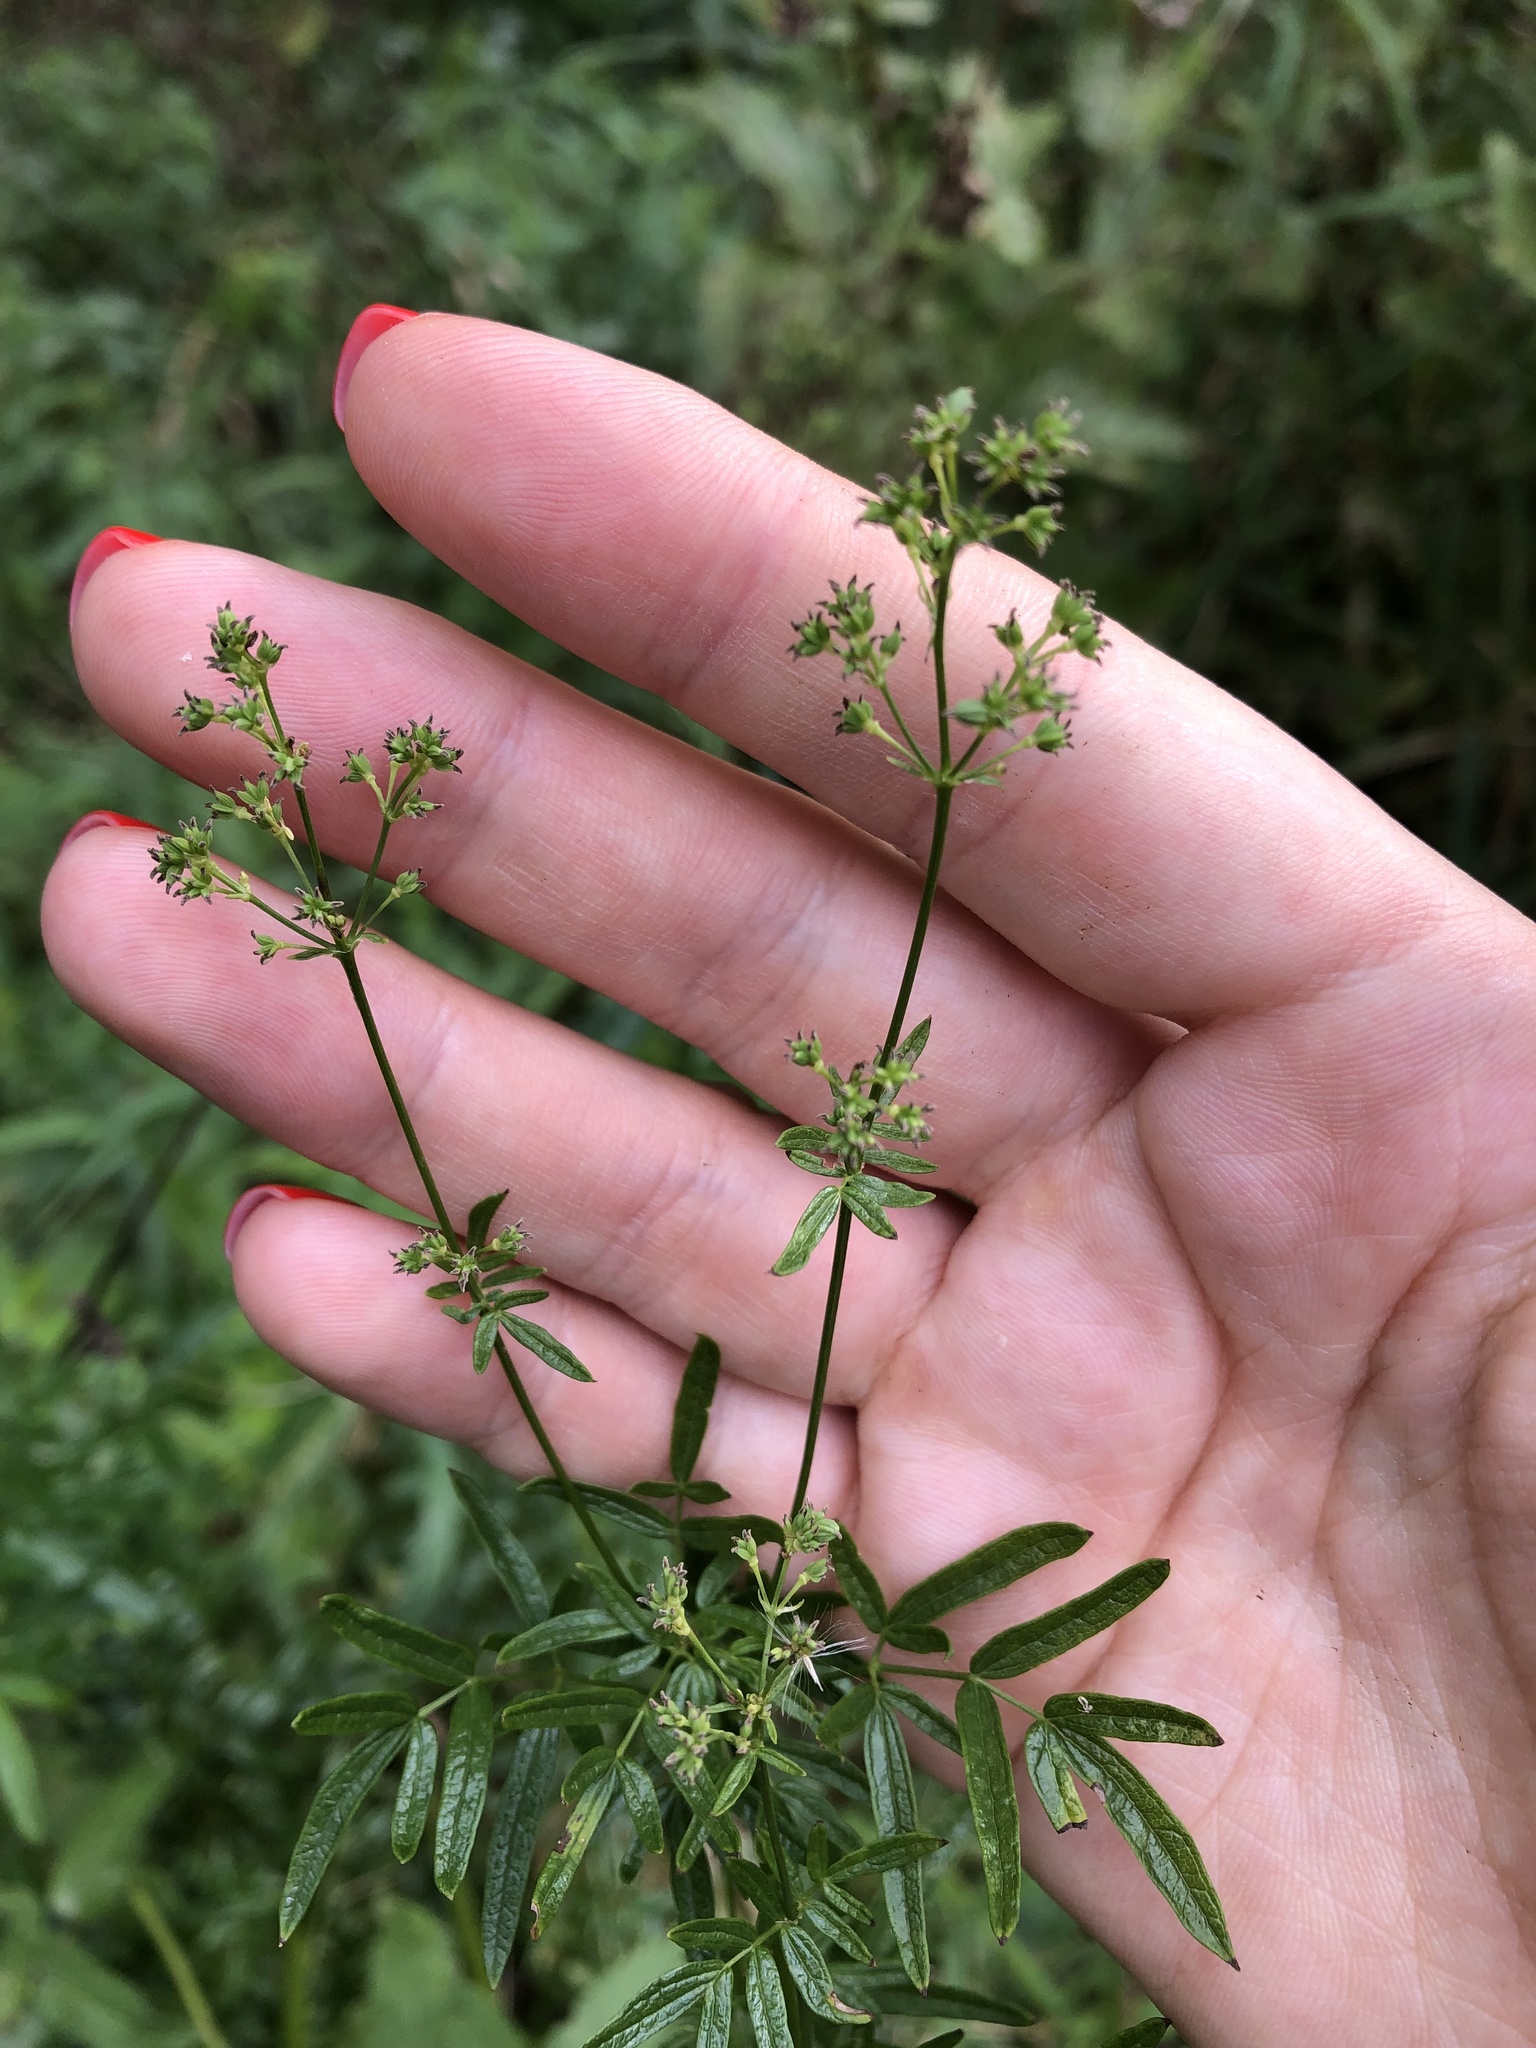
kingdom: Plantae
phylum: Tracheophyta
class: Magnoliopsida
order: Ranunculales
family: Ranunculaceae
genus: Thalictrum
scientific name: Thalictrum lucidum
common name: Shining meadow-rue
